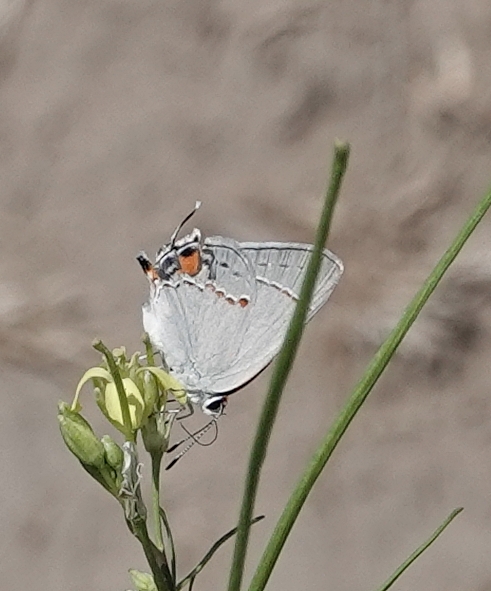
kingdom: Animalia
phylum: Arthropoda
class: Insecta
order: Lepidoptera
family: Lycaenidae
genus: Strymon
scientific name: Strymon melinus
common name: Gray hairstreak
